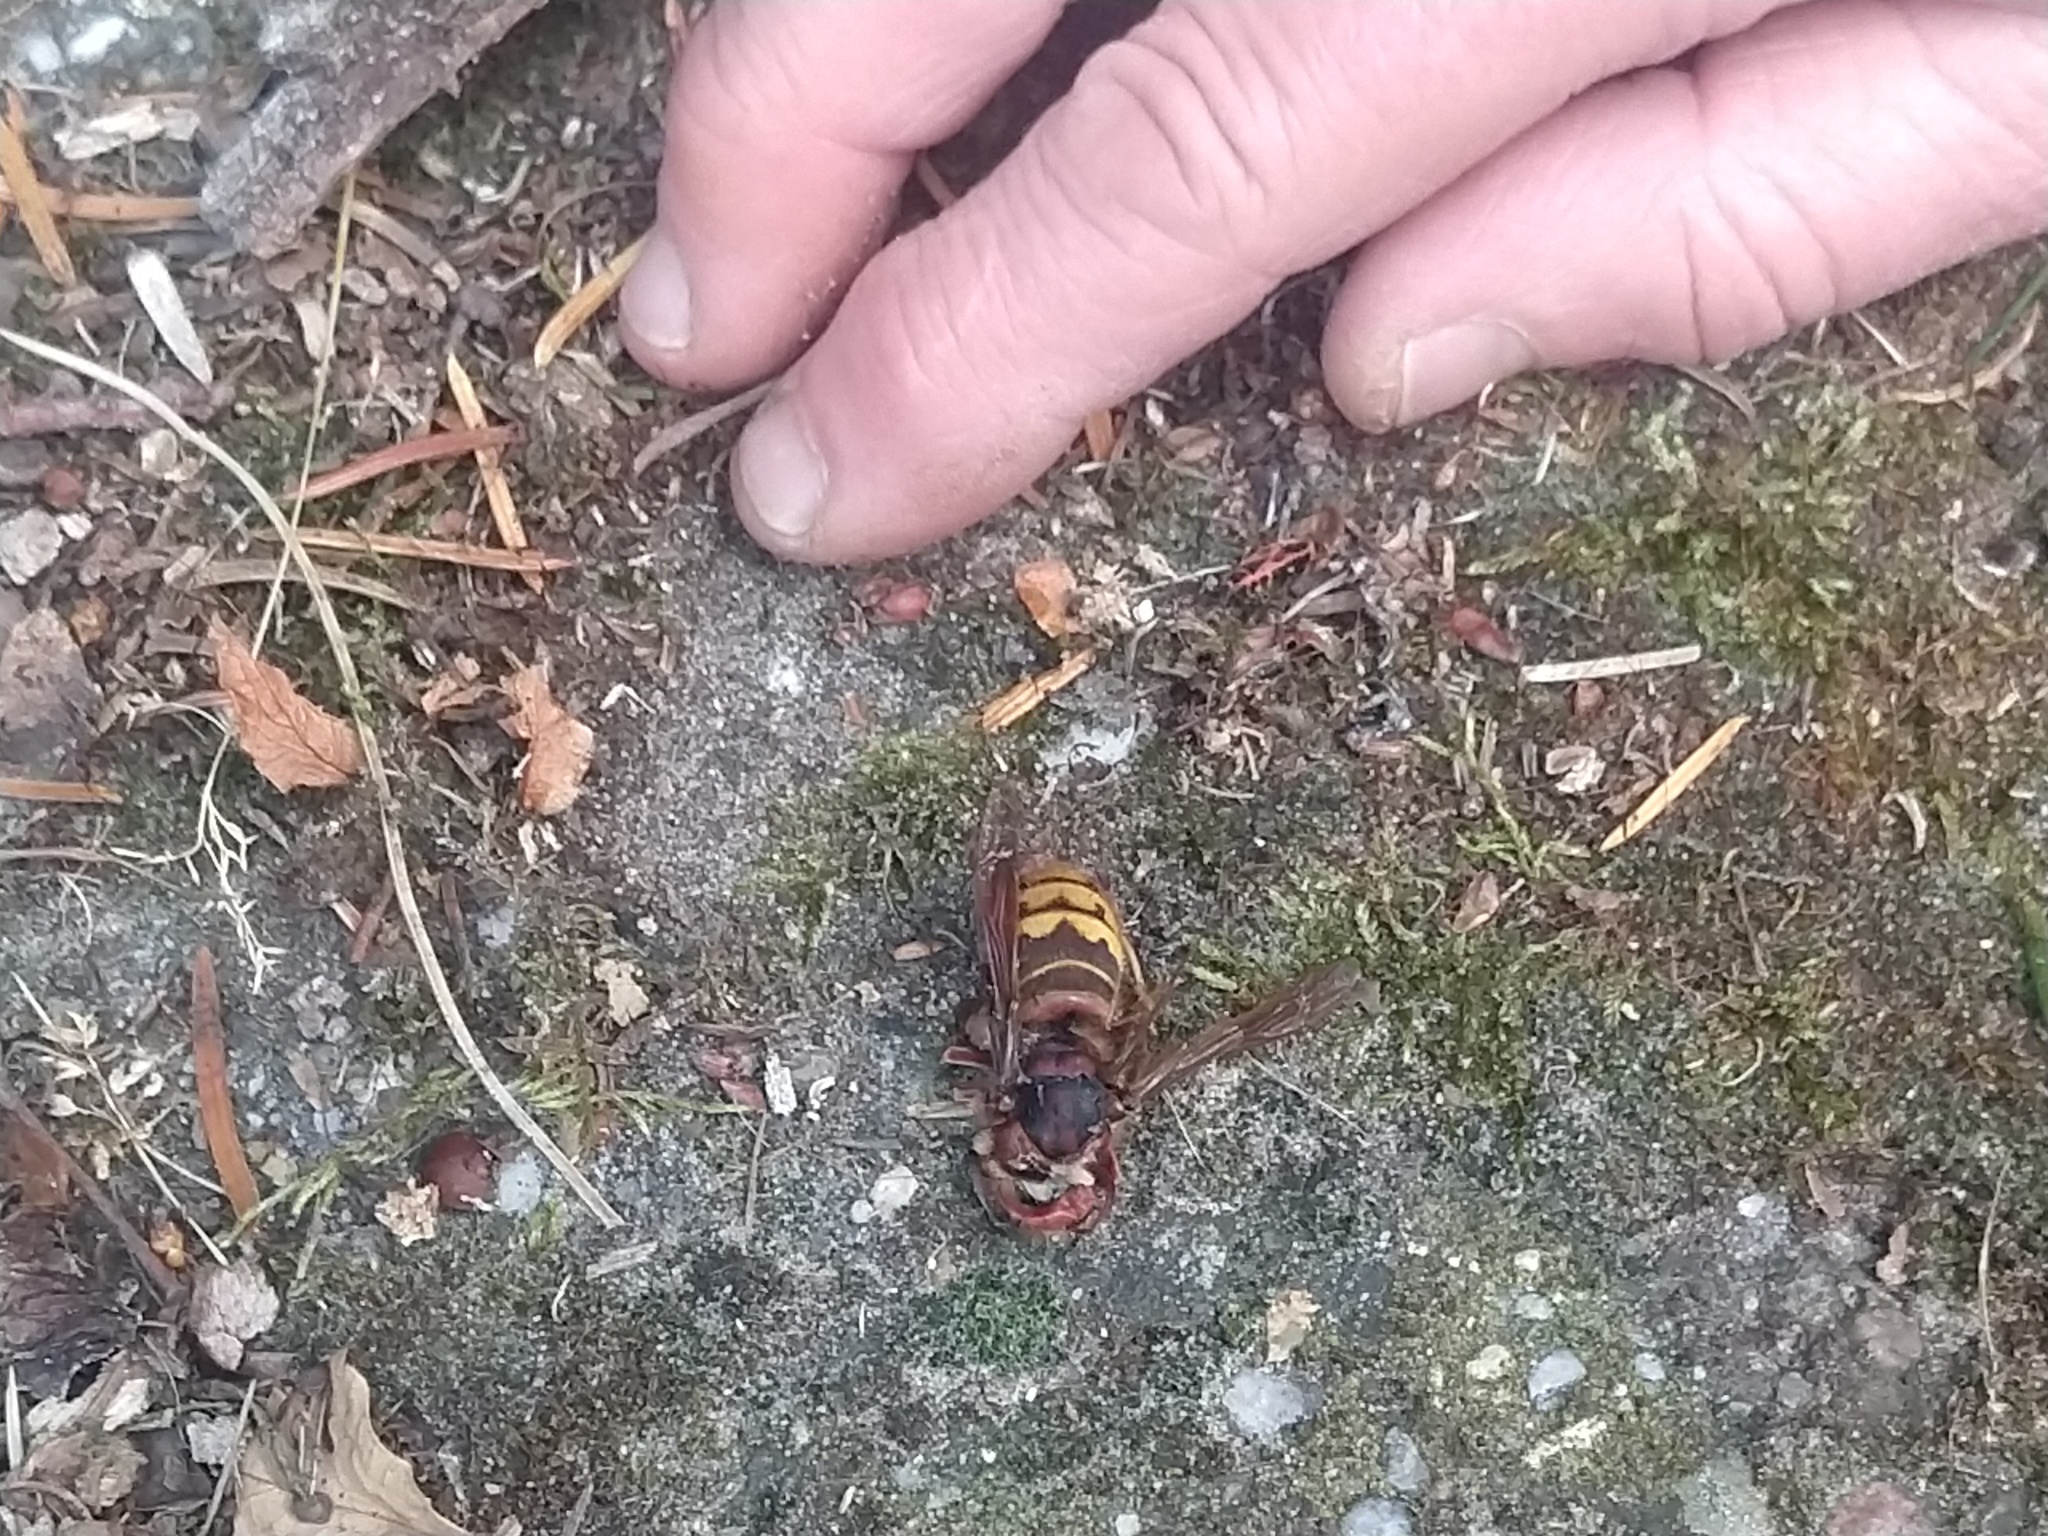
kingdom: Animalia
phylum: Arthropoda
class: Insecta
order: Hymenoptera
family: Vespidae
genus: Vespa
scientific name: Vespa crabro
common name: Hornet
